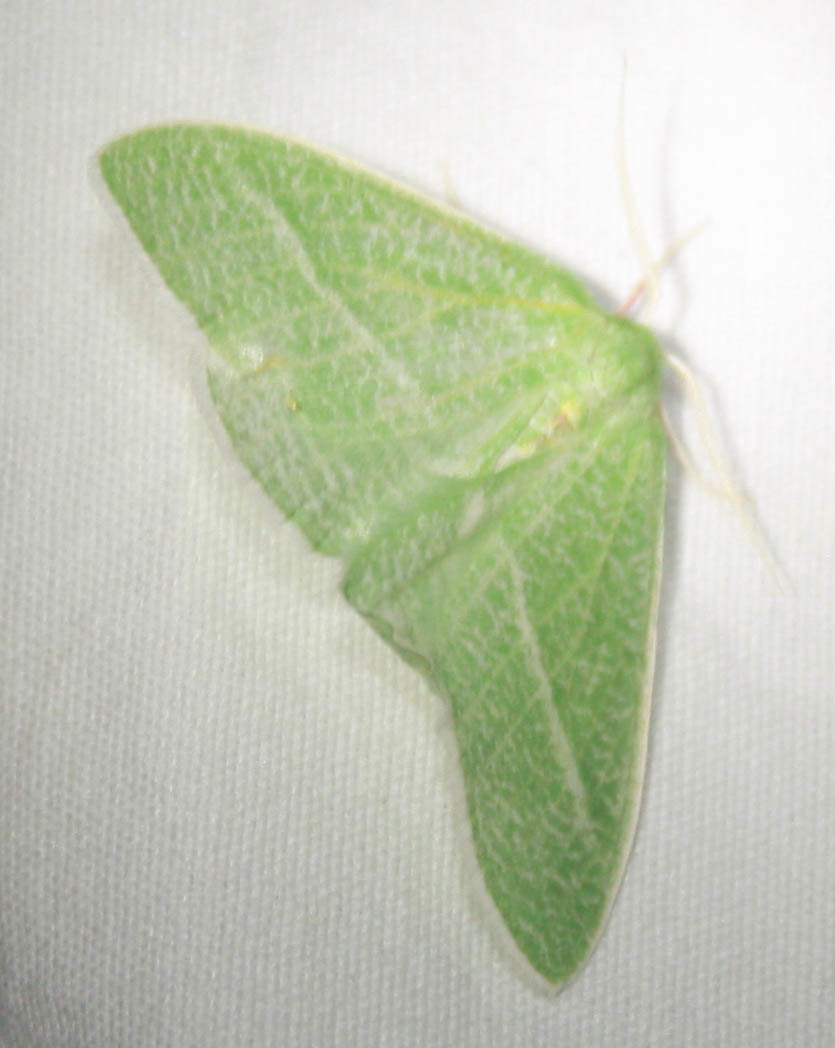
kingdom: Animalia
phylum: Arthropoda
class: Insecta
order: Lepidoptera
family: Geometridae
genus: Chlorosea
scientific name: Chlorosea banksaria
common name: Bank's emerald moth
